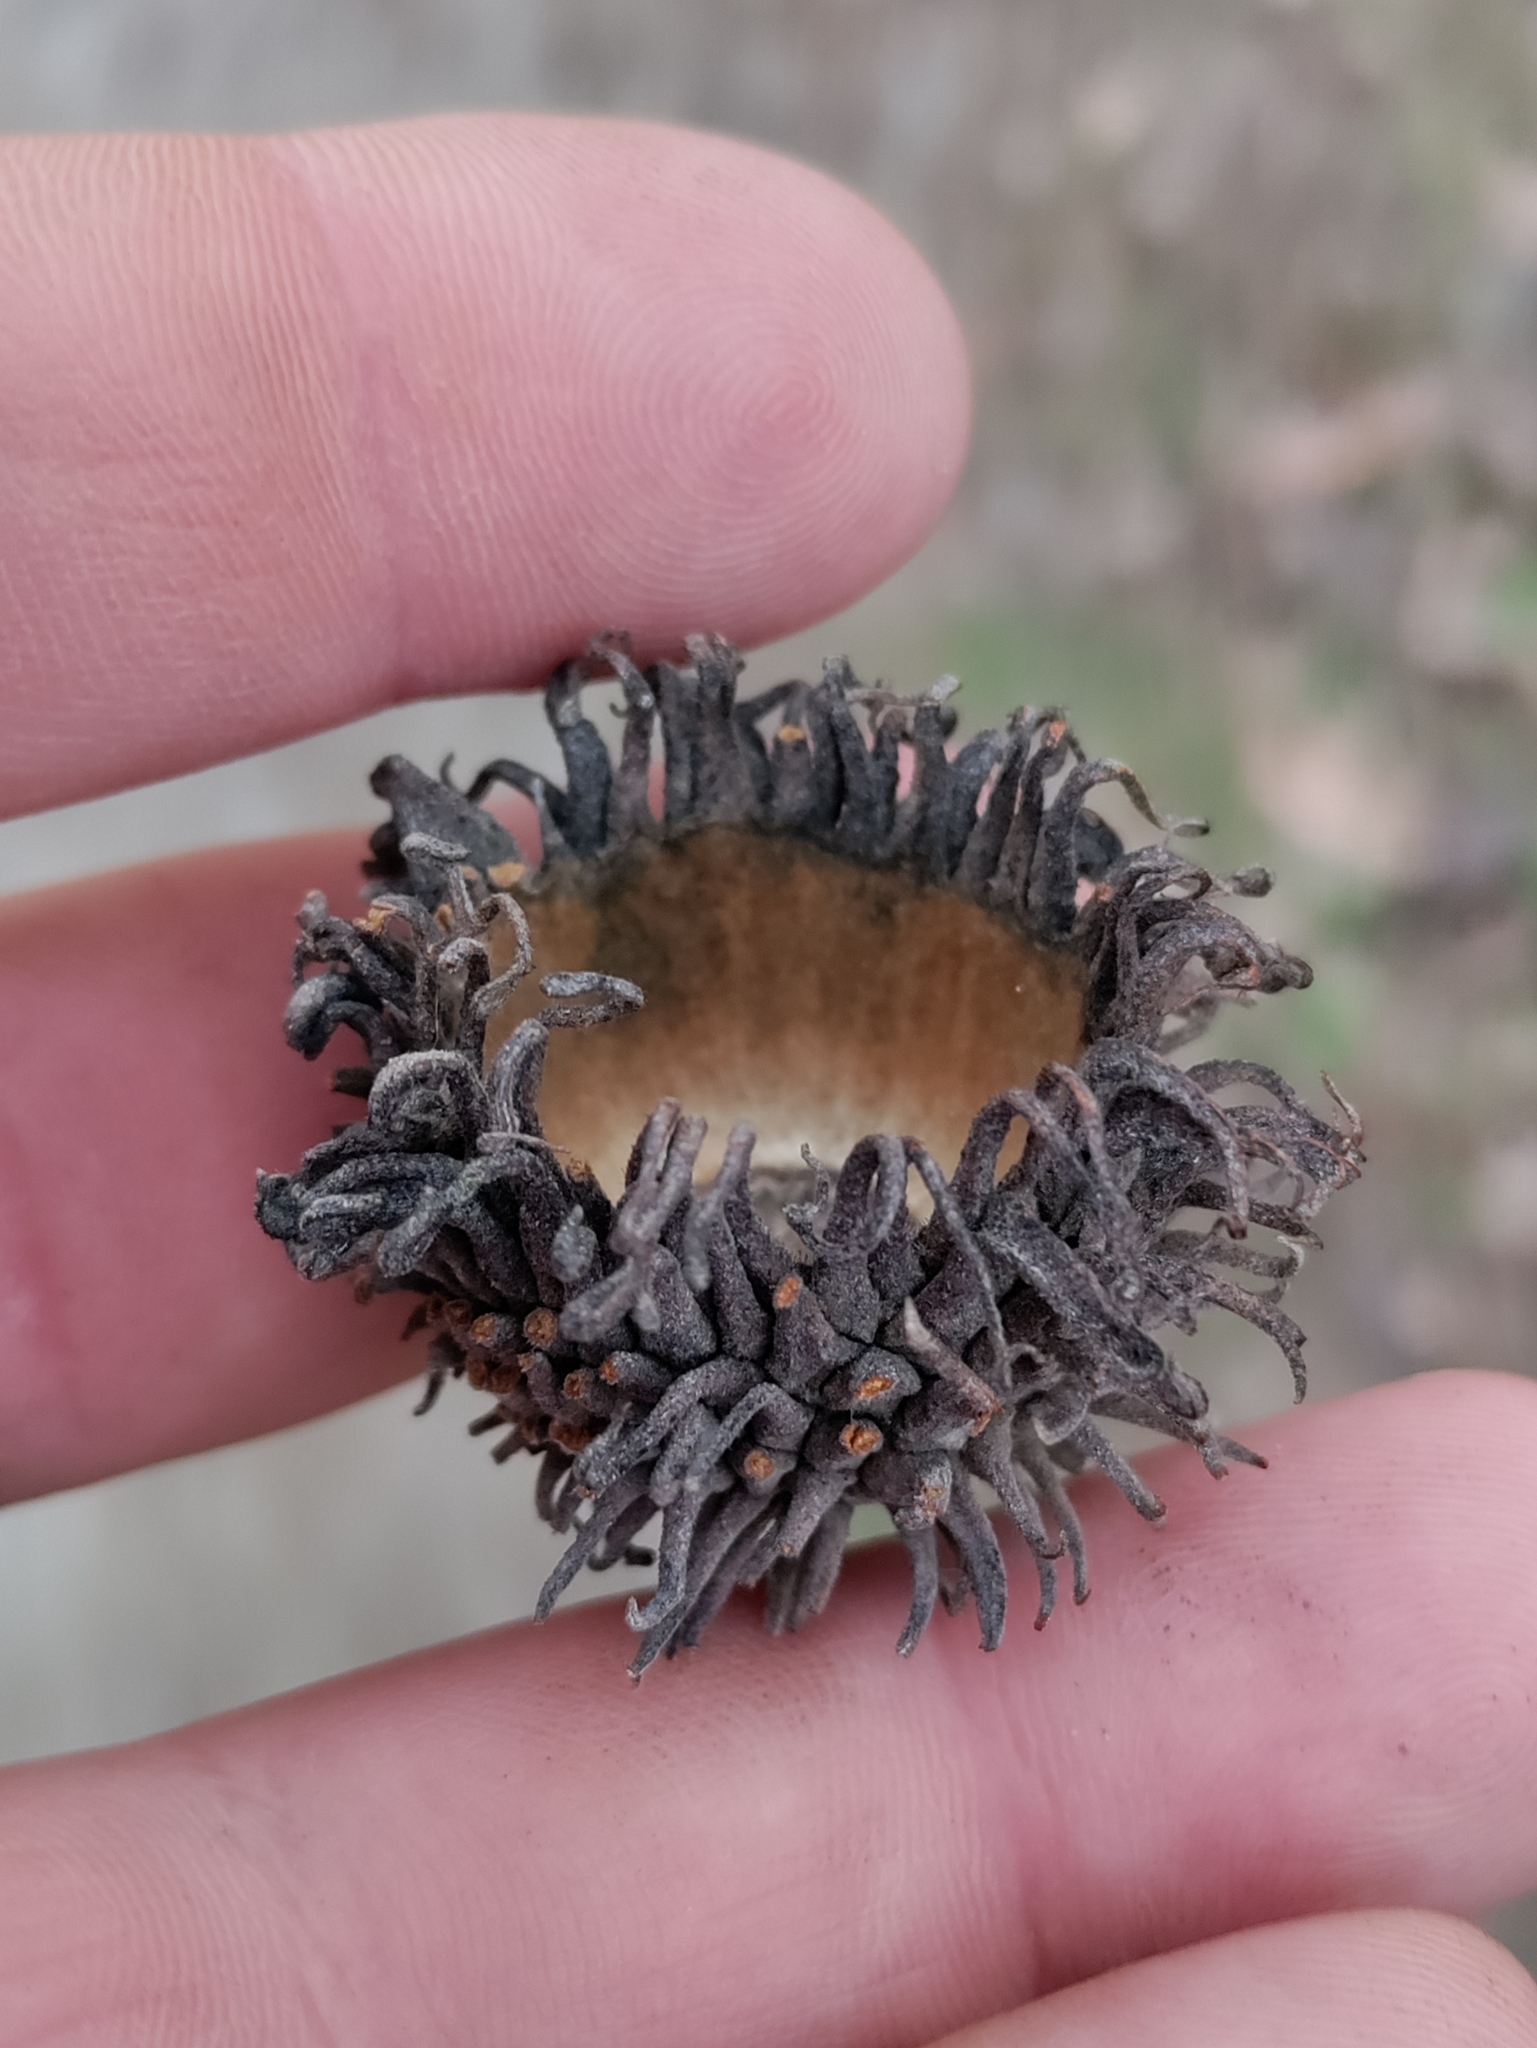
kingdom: Plantae
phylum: Tracheophyta
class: Magnoliopsida
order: Fagales
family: Fagaceae
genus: Quercus
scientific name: Quercus cerris
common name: Turkey oak
